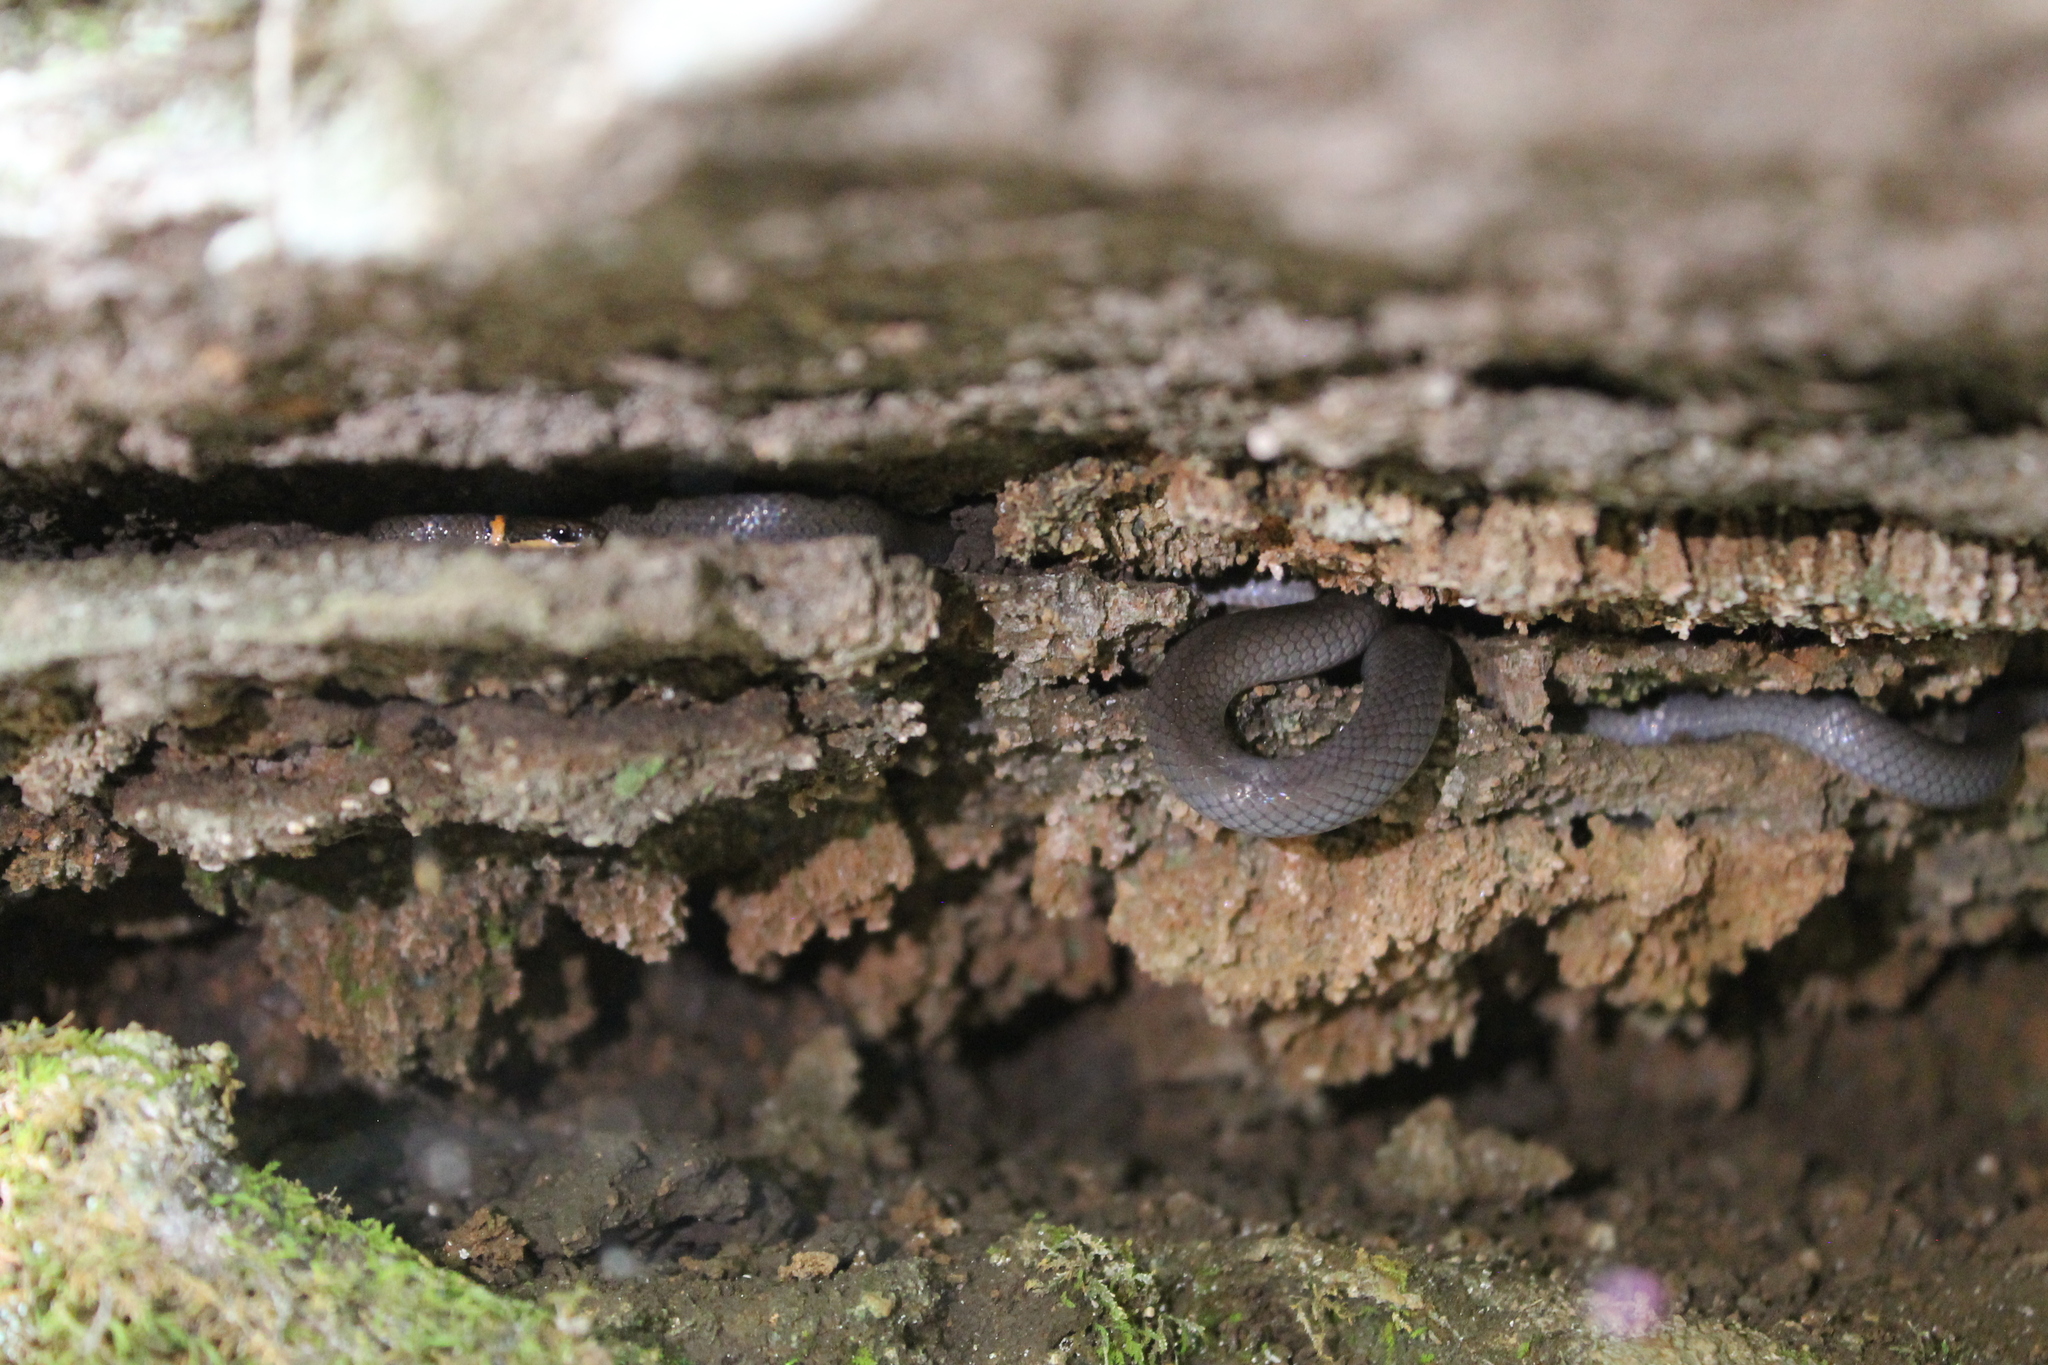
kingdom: Animalia
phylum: Chordata
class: Squamata
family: Colubridae
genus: Diadophis
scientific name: Diadophis punctatus
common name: Ringneck snake
